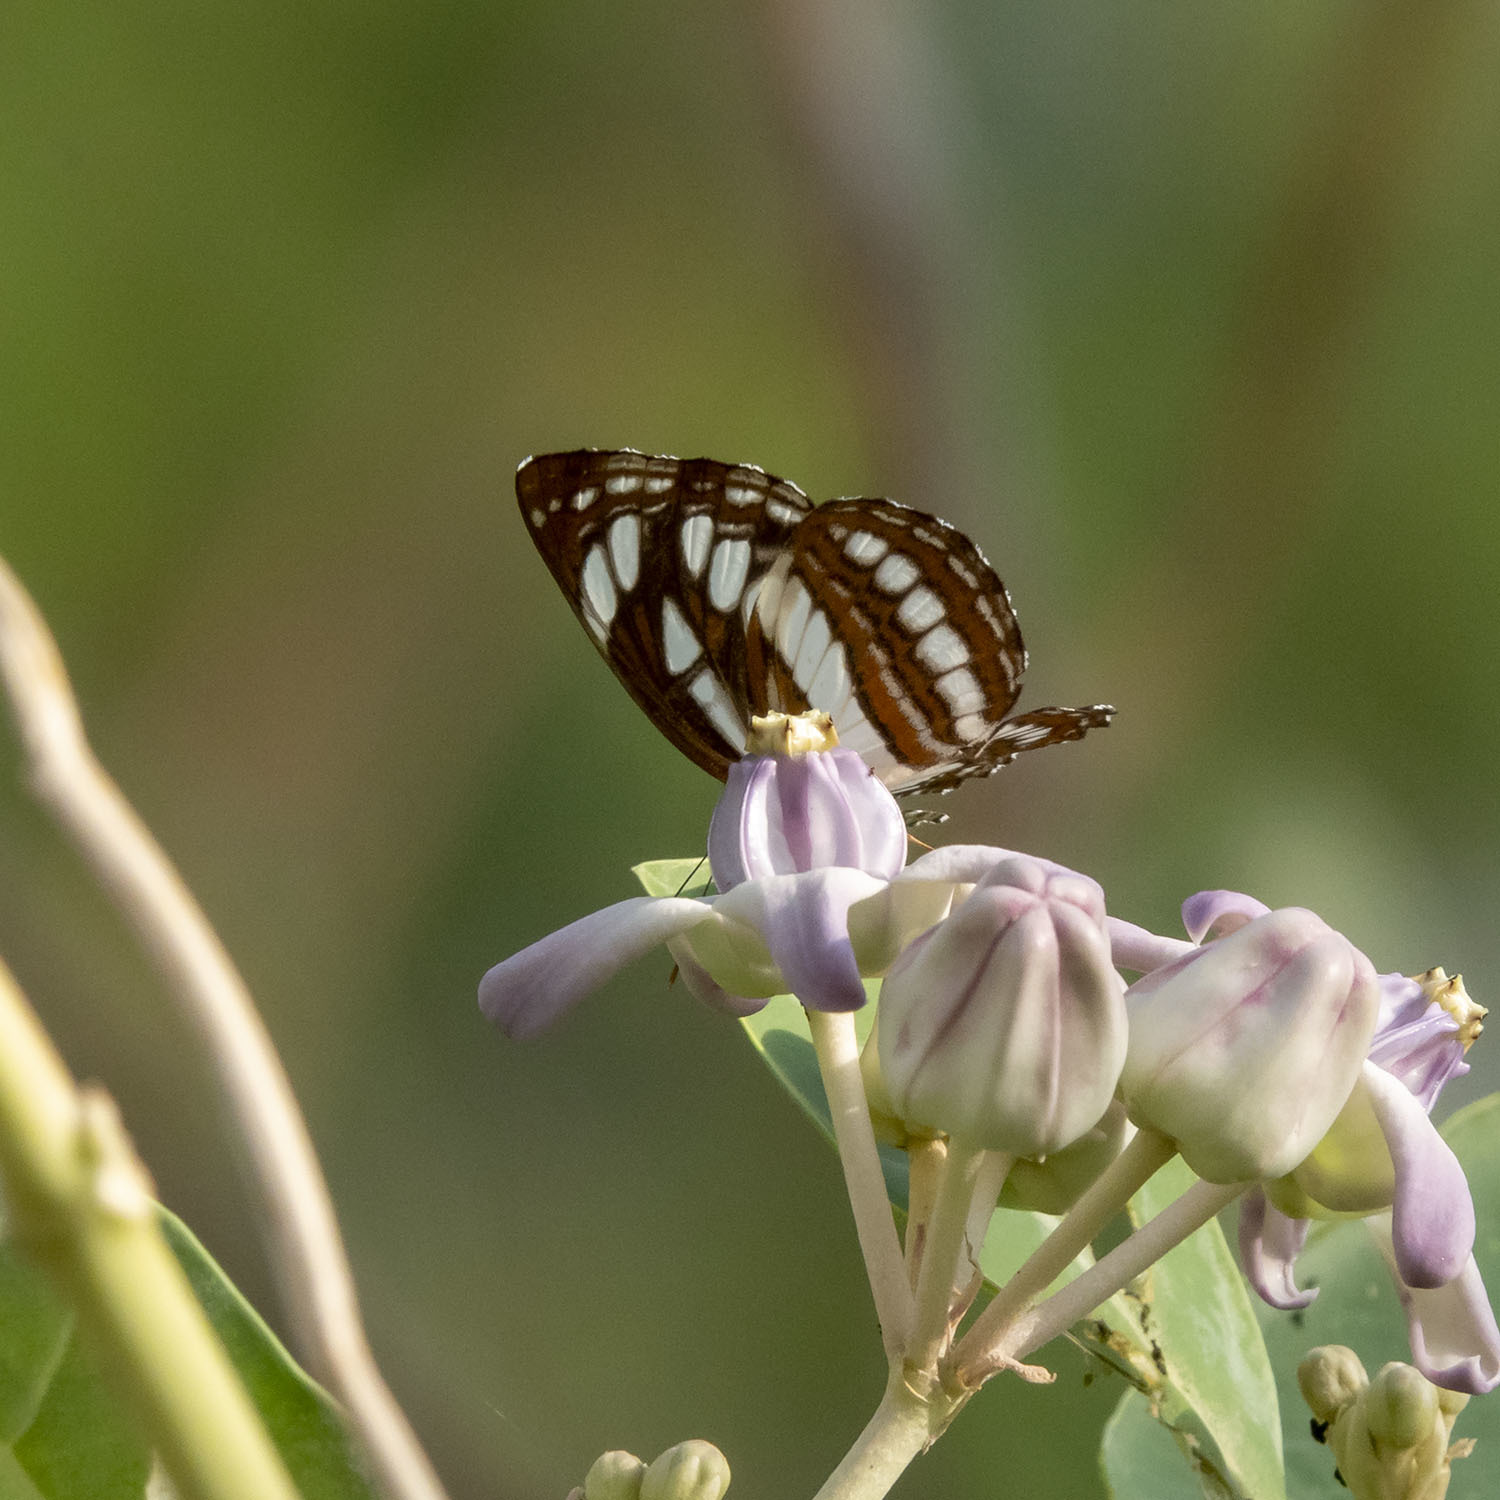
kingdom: Animalia
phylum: Arthropoda
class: Insecta
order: Lepidoptera
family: Nymphalidae
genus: Neptis
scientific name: Neptis hylas
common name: Common sailer
